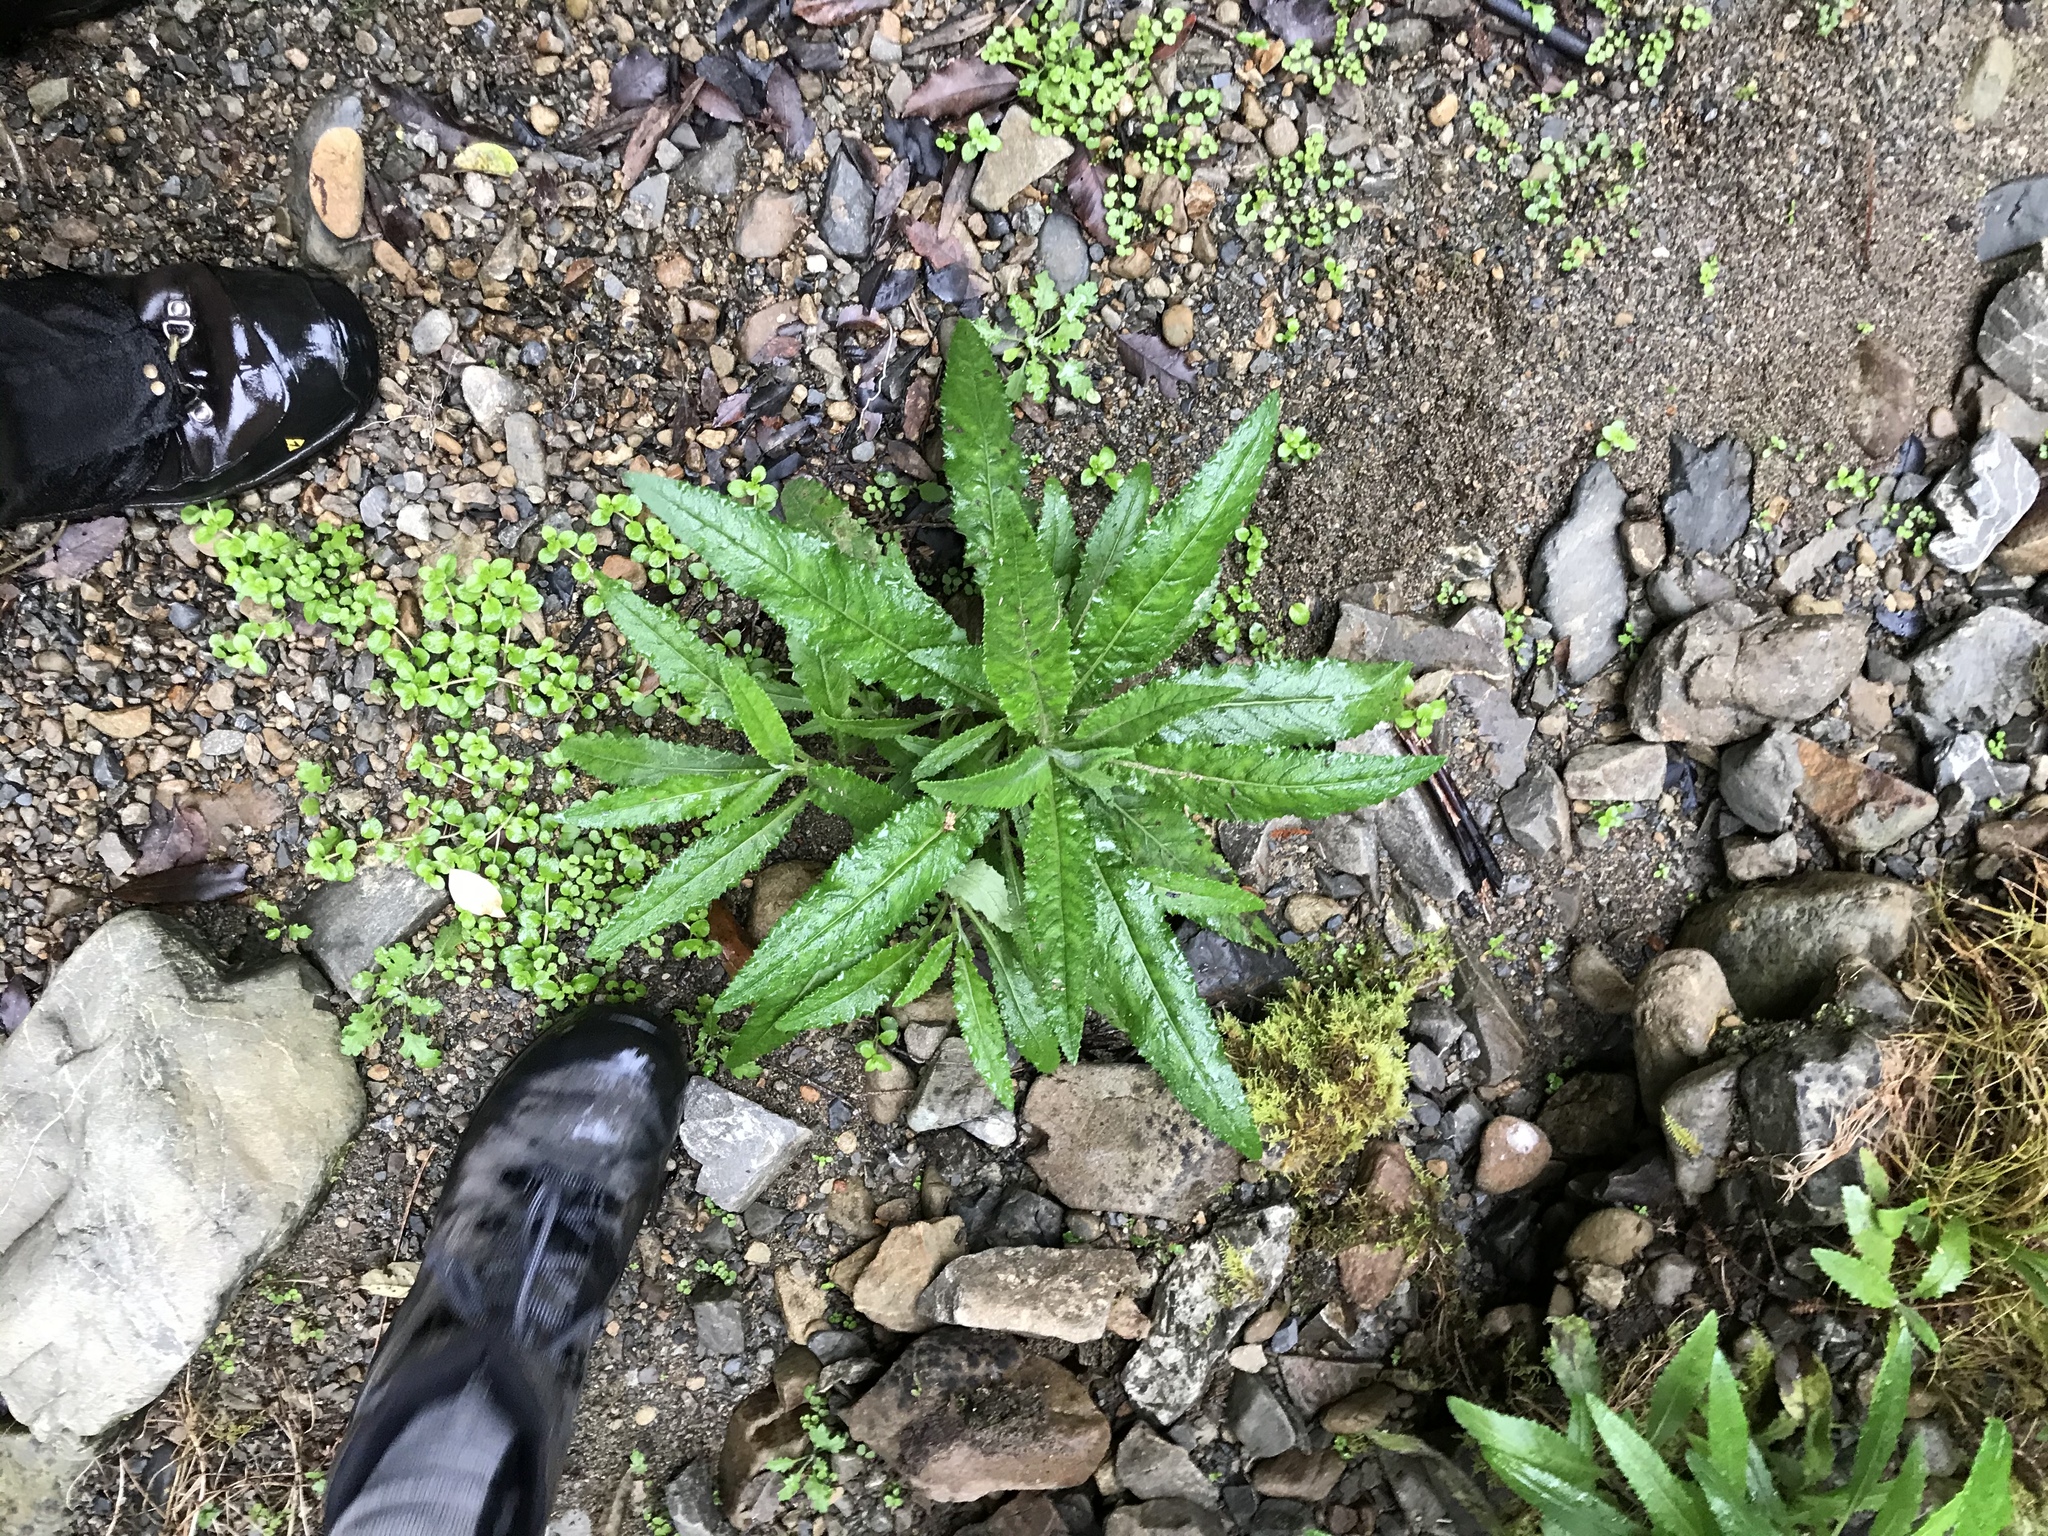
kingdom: Plantae
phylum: Tracheophyta
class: Magnoliopsida
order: Asterales
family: Asteraceae
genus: Senecio
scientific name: Senecio minimus
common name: Toothed fireweed
